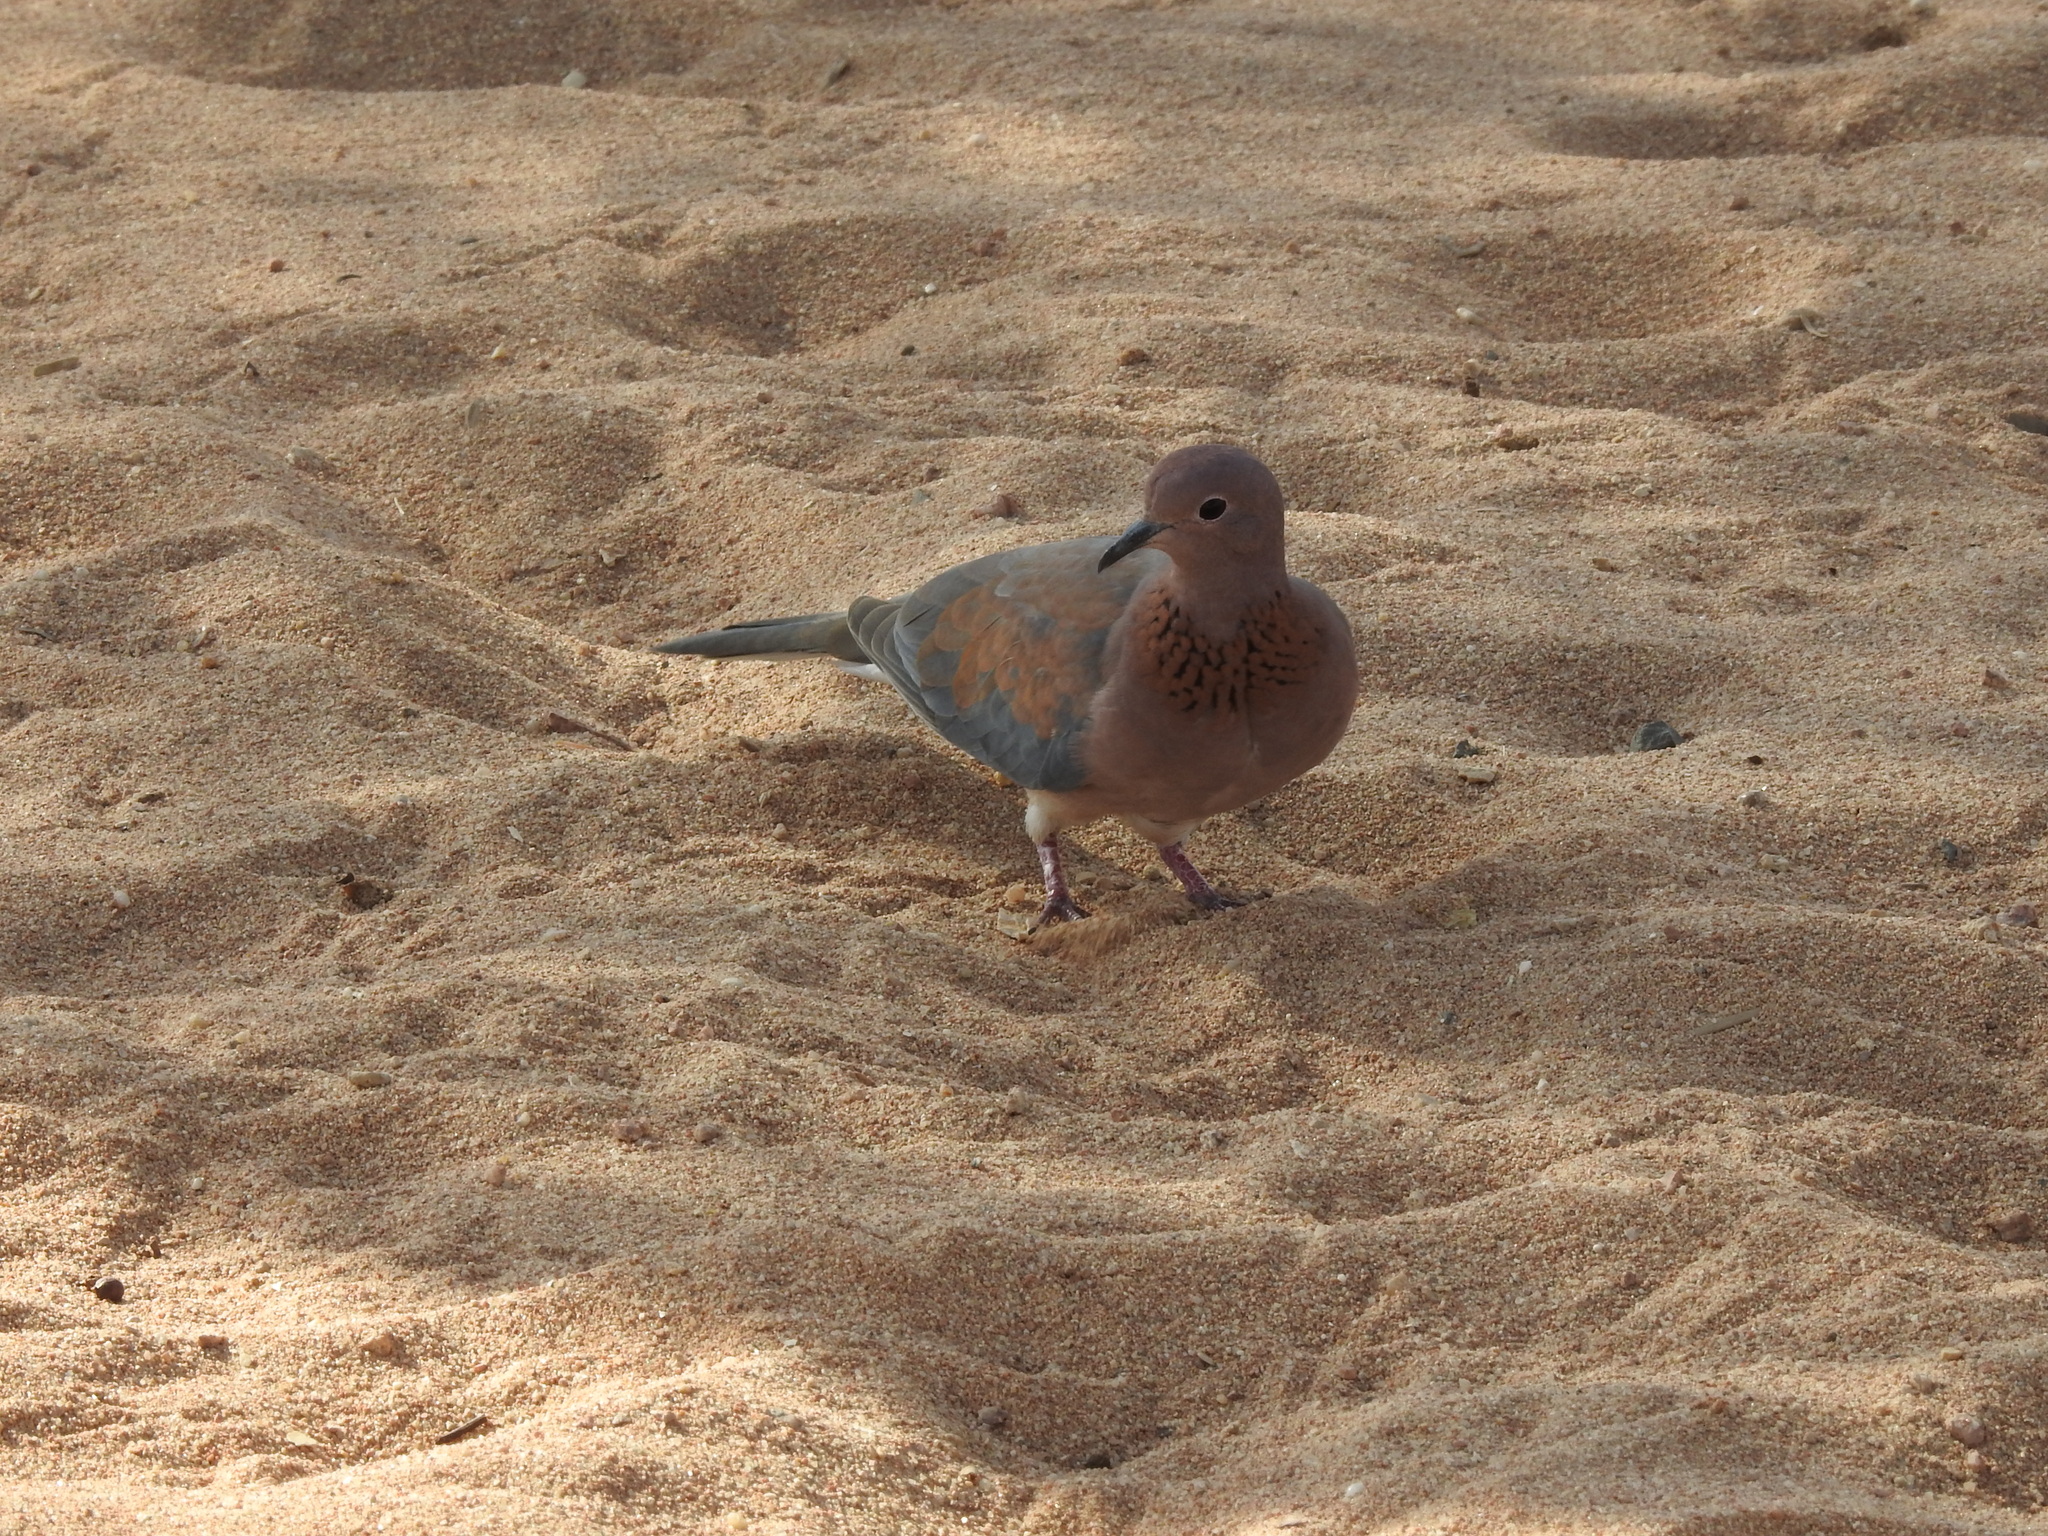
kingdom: Animalia
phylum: Chordata
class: Aves
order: Columbiformes
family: Columbidae
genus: Spilopelia
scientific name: Spilopelia senegalensis
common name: Laughing dove
